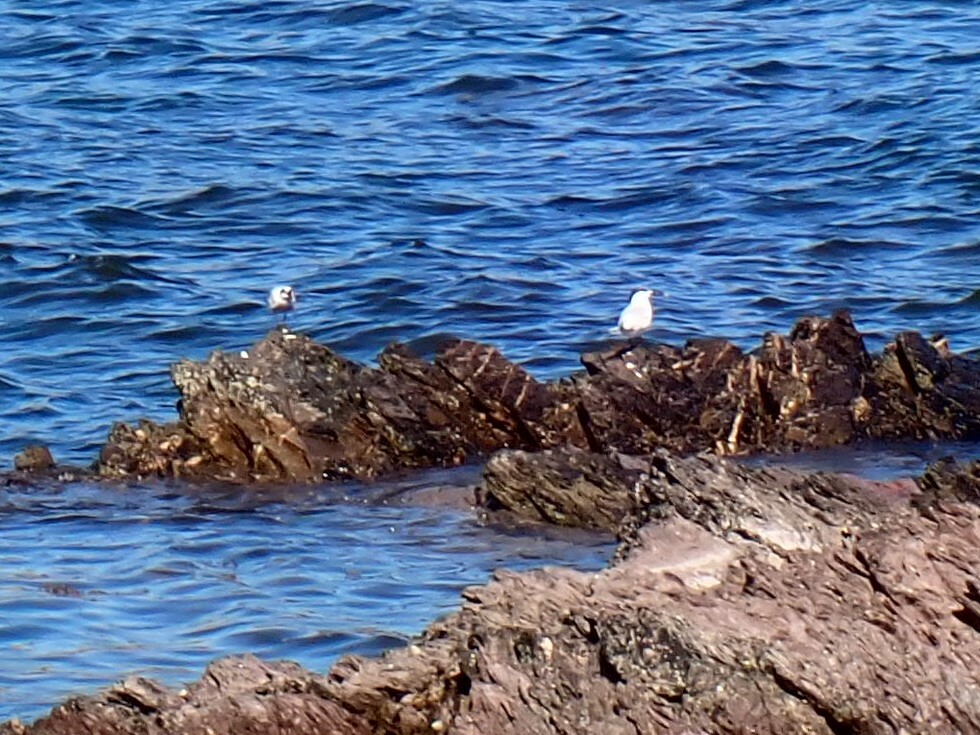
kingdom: Animalia
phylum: Chordata
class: Aves
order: Charadriiformes
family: Laridae
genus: Thalasseus
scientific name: Thalasseus sandvicensis
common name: Sandwich tern
